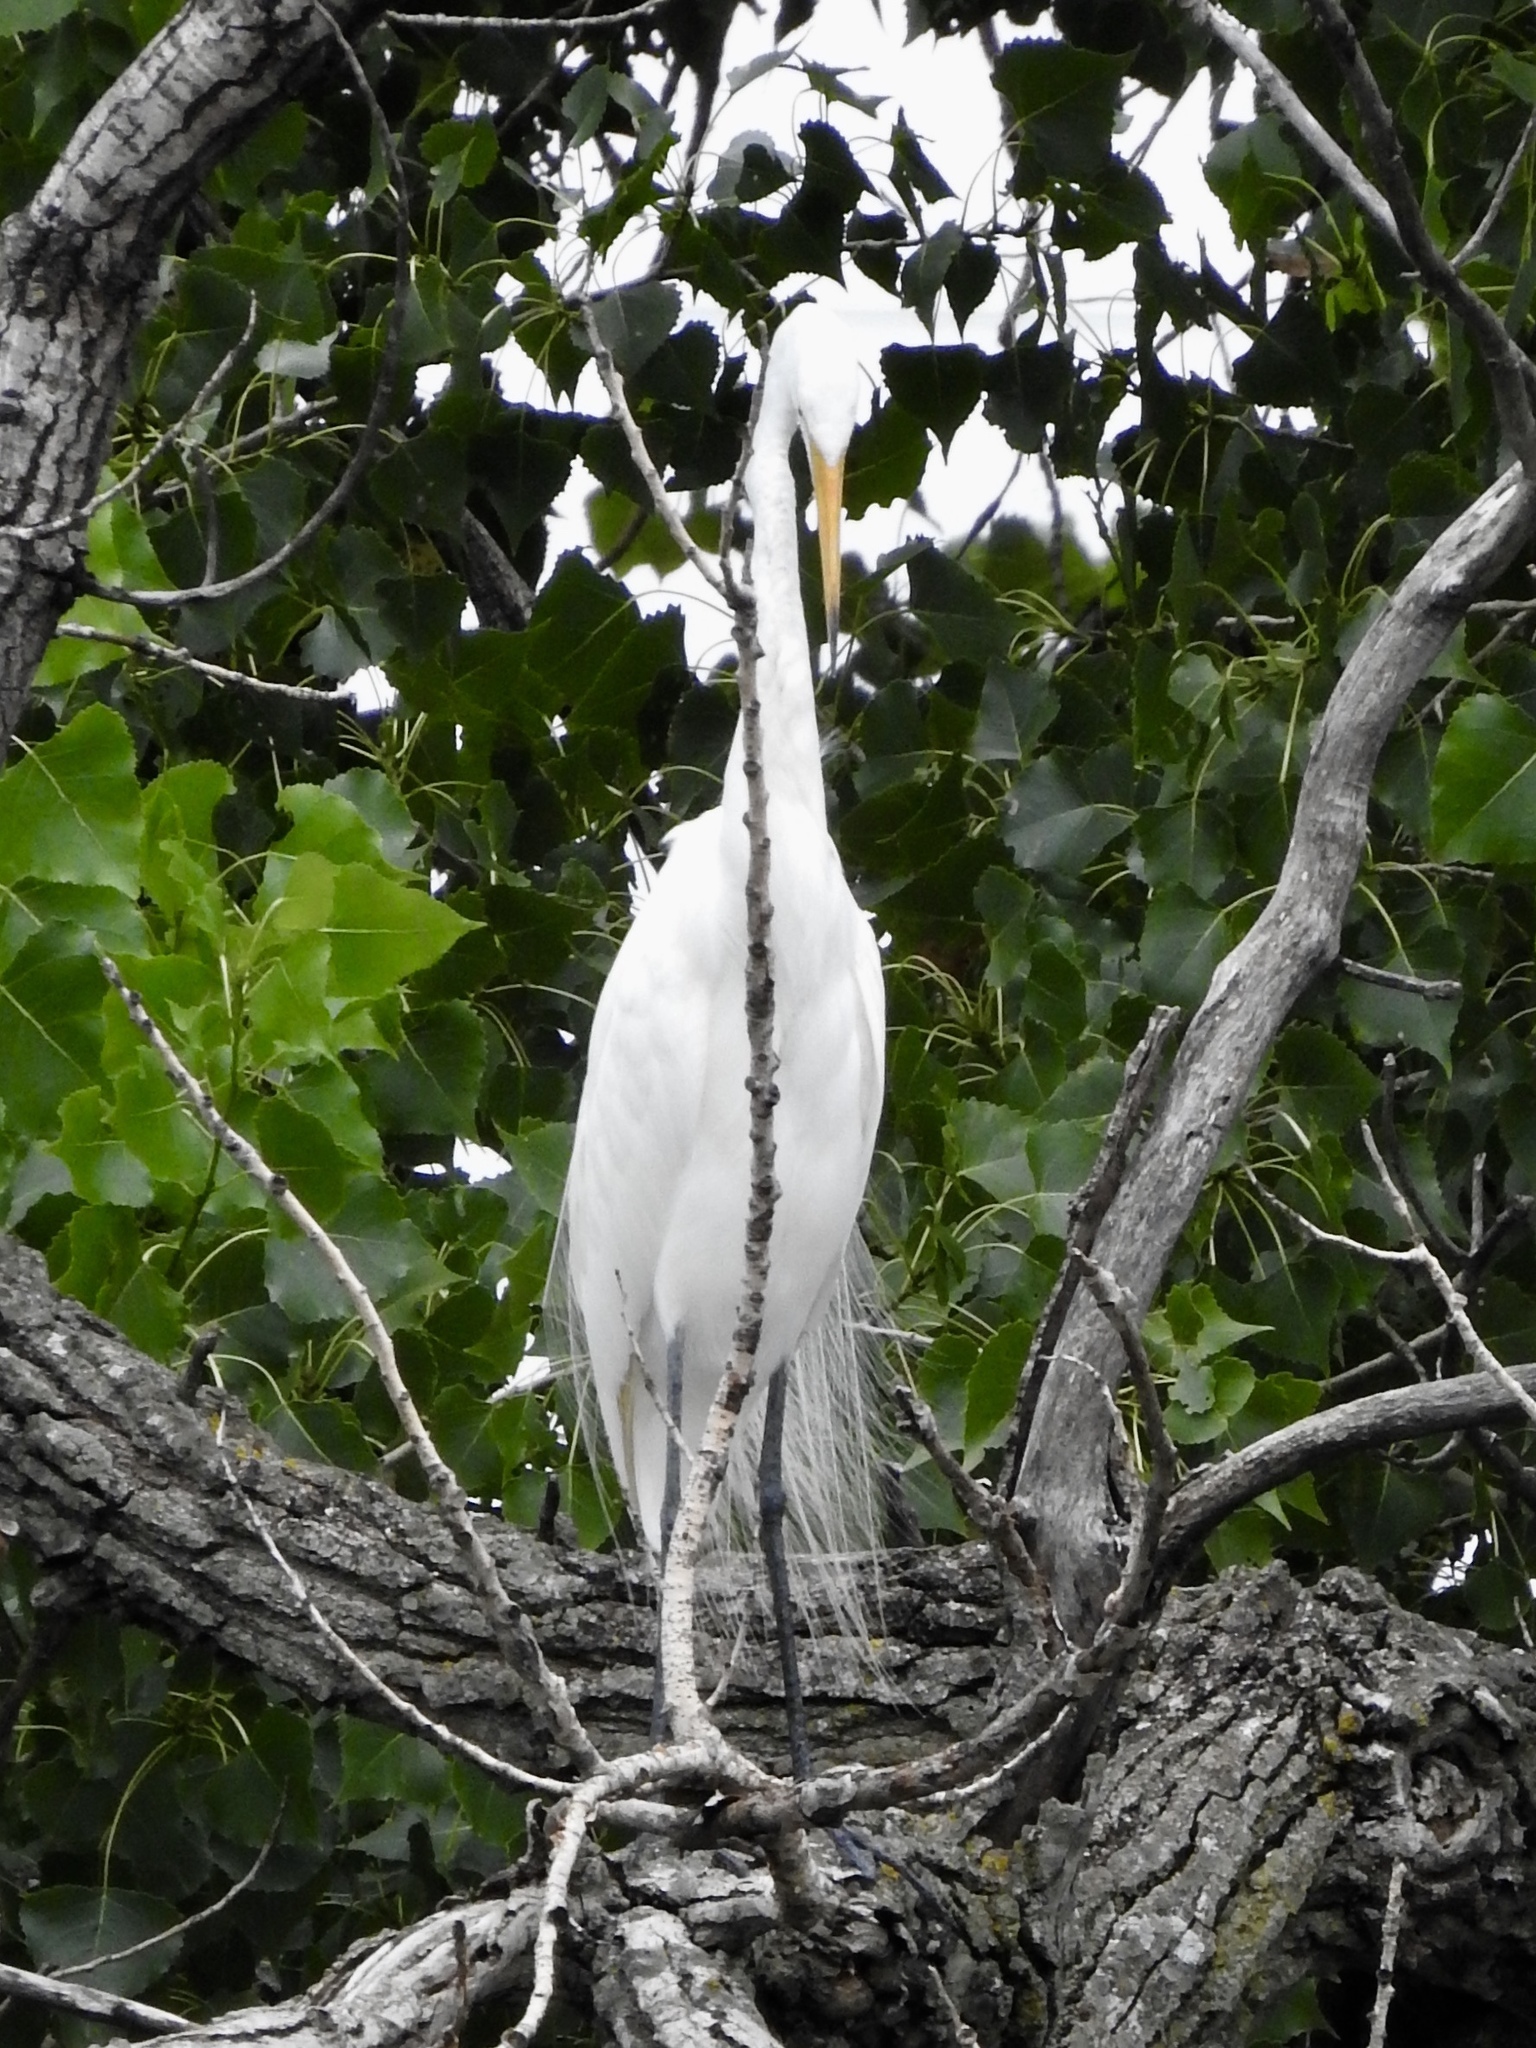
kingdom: Animalia
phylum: Chordata
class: Aves
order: Pelecaniformes
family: Ardeidae
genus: Ardea
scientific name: Ardea alba
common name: Great egret
